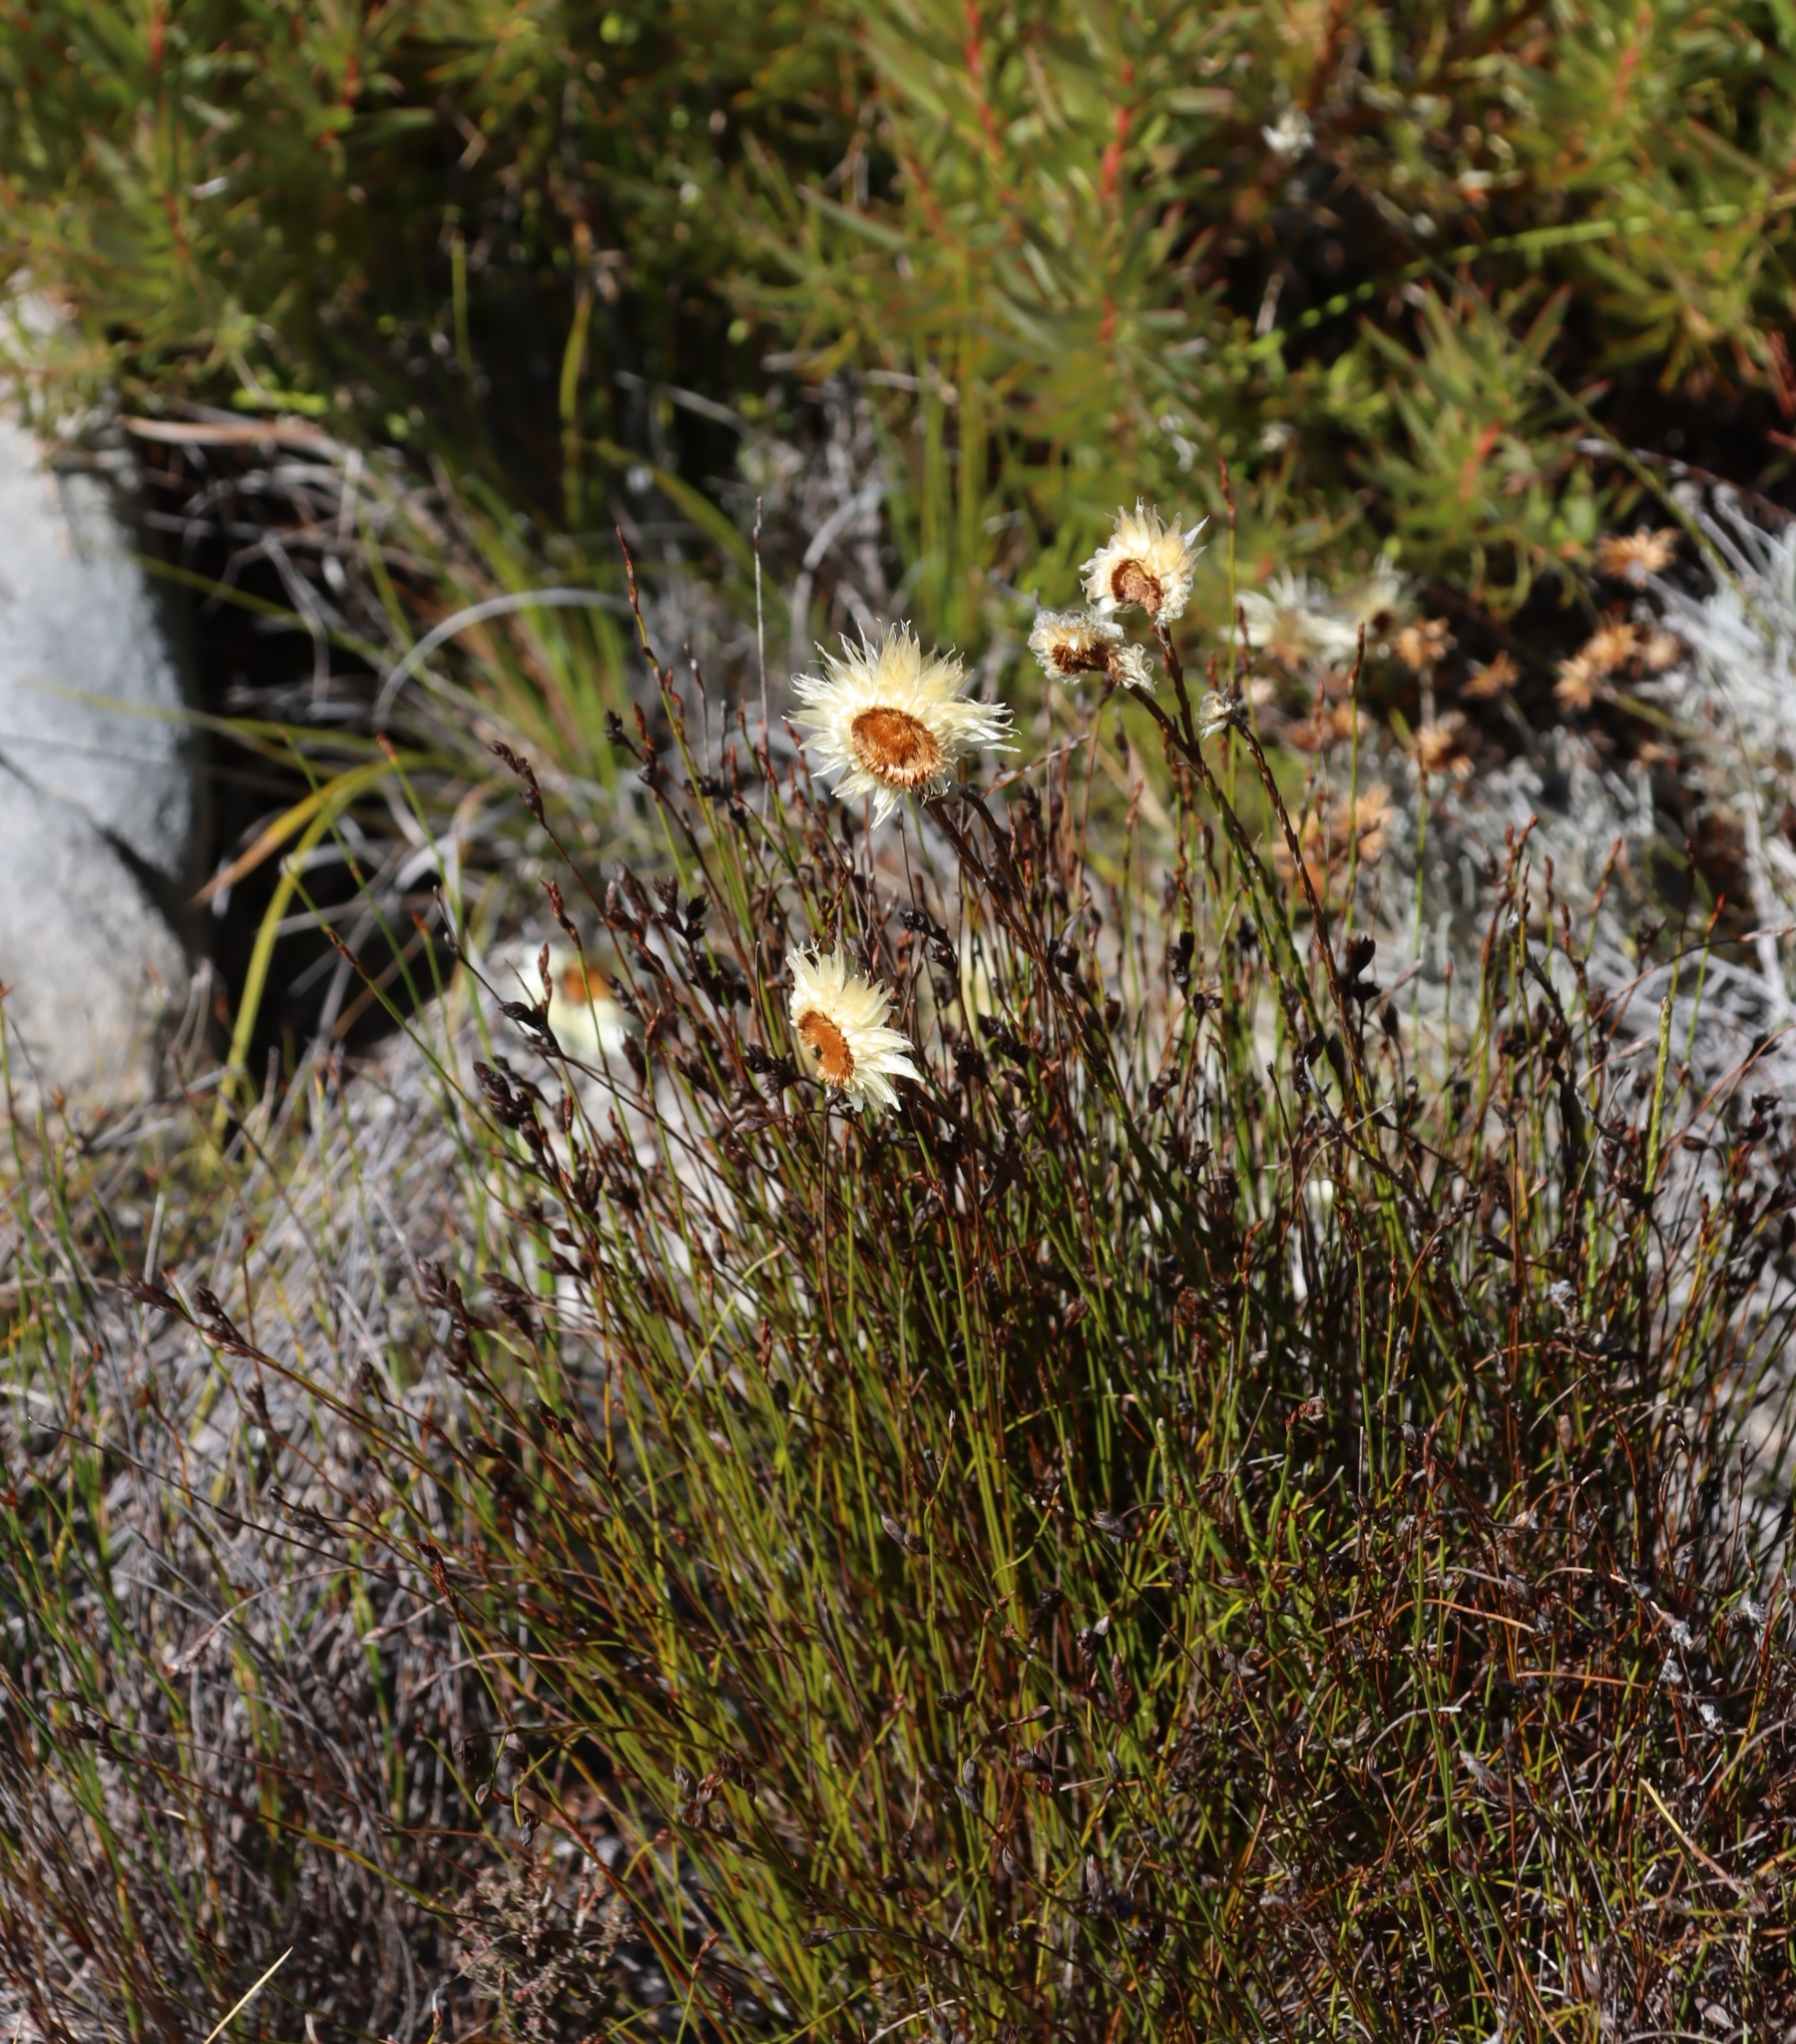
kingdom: Plantae
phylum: Tracheophyta
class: Magnoliopsida
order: Asterales
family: Asteraceae
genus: Edmondia
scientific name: Edmondia sesamoides
